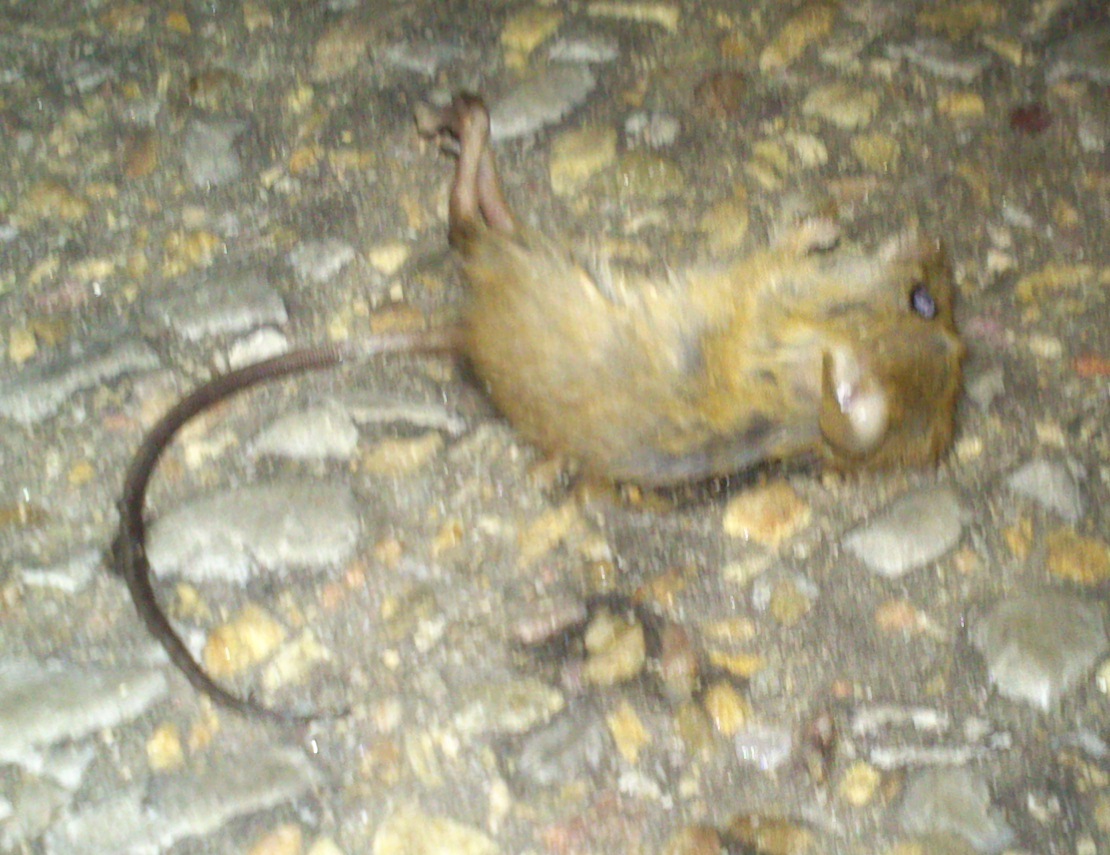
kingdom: Animalia
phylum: Chordata
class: Mammalia
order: Rodentia
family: Muridae
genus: Grammomys
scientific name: Grammomys dolichurus
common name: Common grammomys
